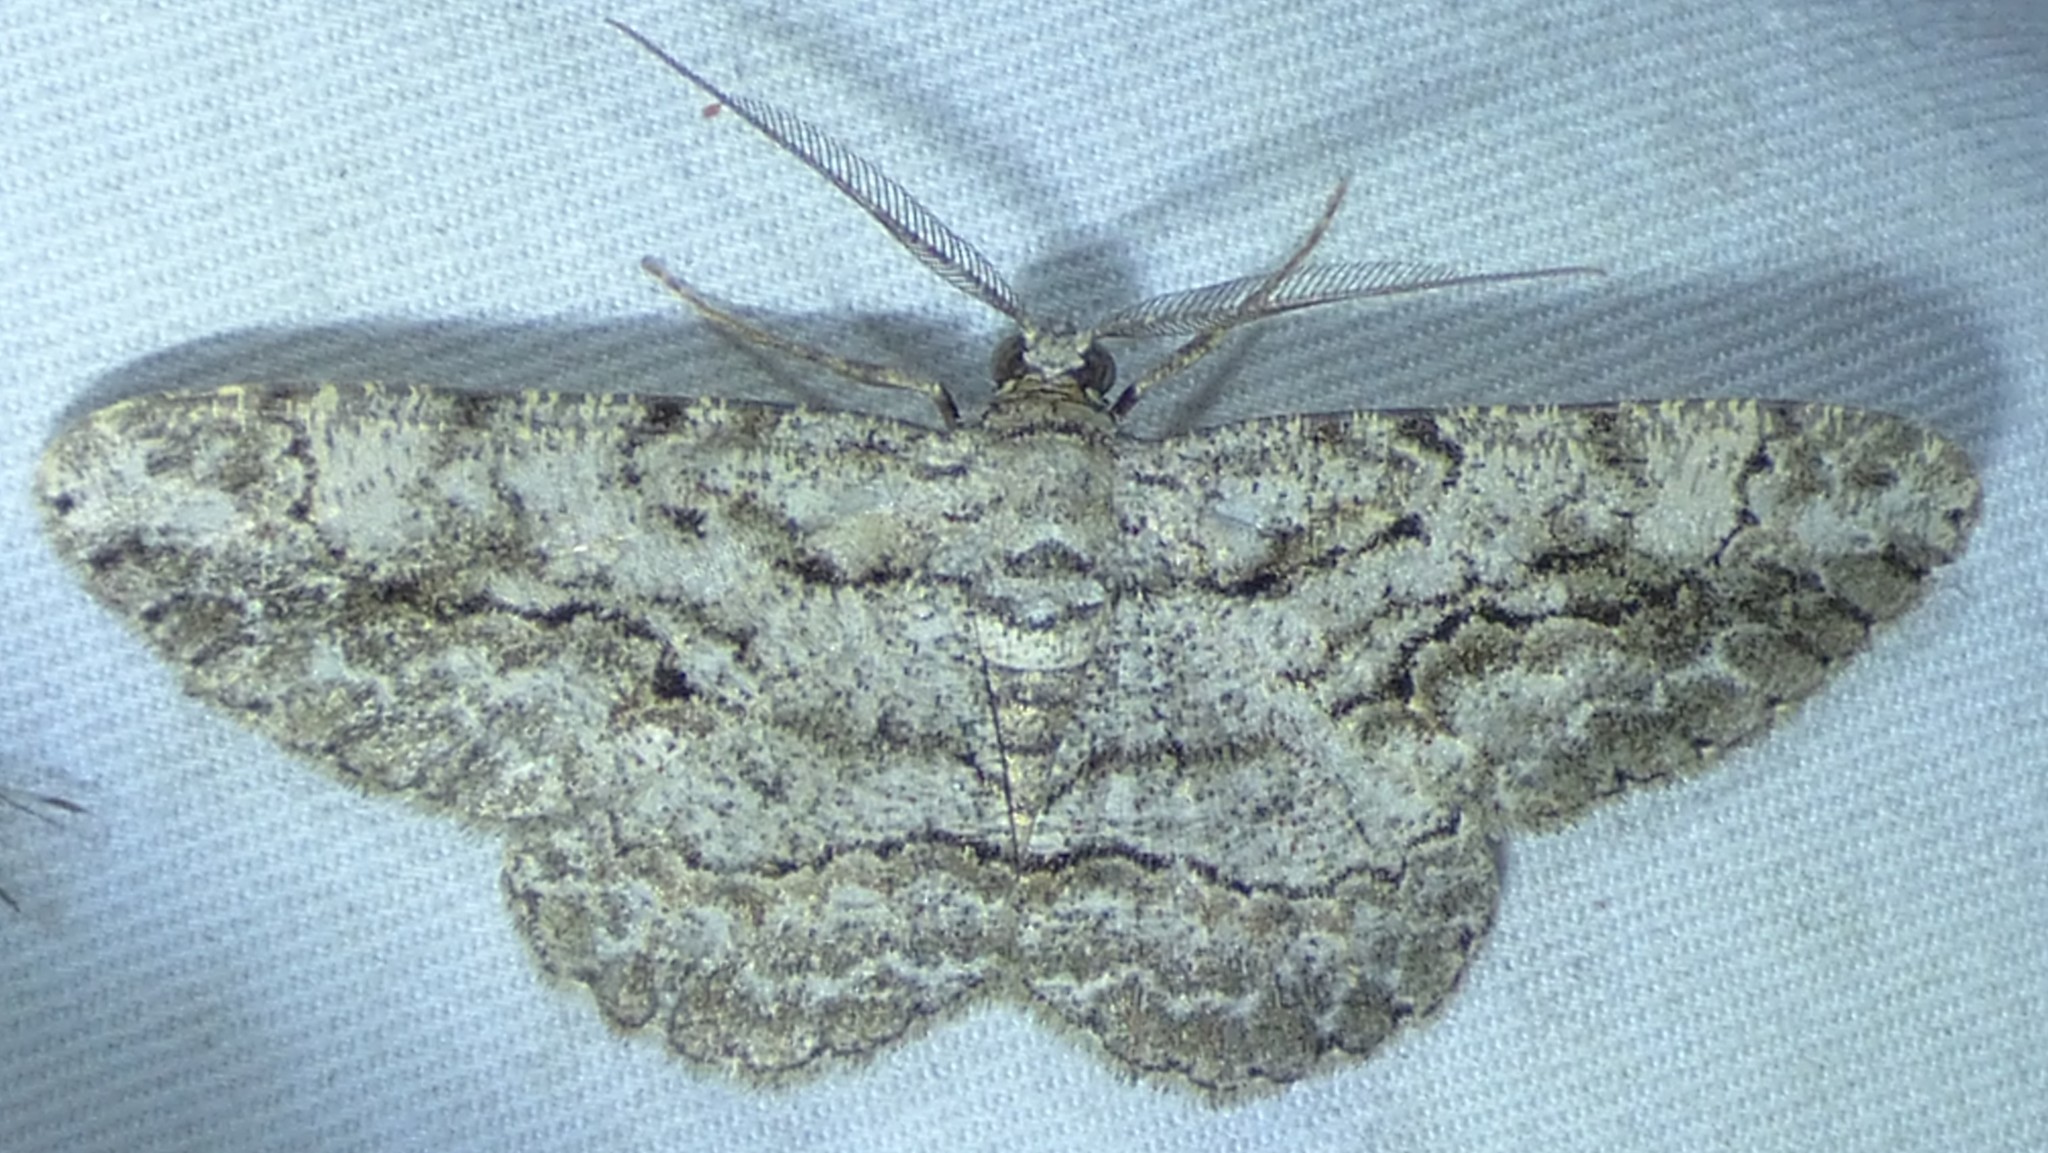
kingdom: Animalia
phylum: Arthropoda
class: Insecta
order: Lepidoptera
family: Geometridae
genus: Anavitrinella
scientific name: Anavitrinella pampinaria
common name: Common gray
